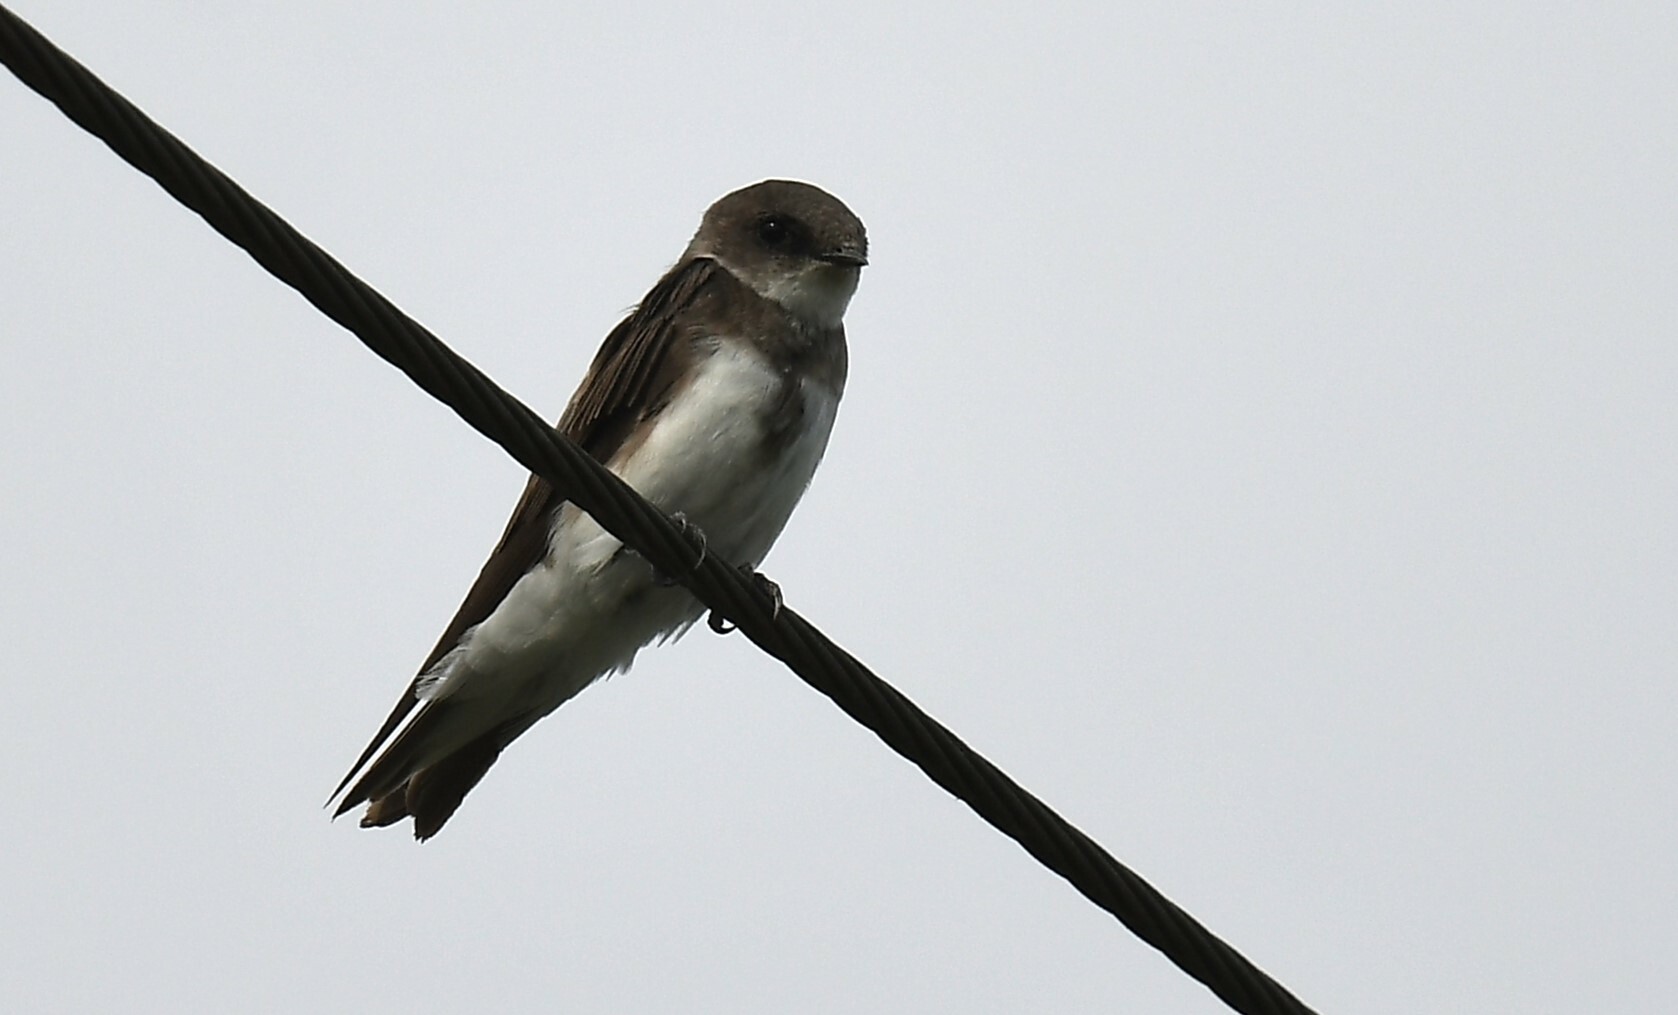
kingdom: Animalia
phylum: Chordata
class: Aves
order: Passeriformes
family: Hirundinidae
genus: Riparia
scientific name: Riparia riparia
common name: Sand martin
